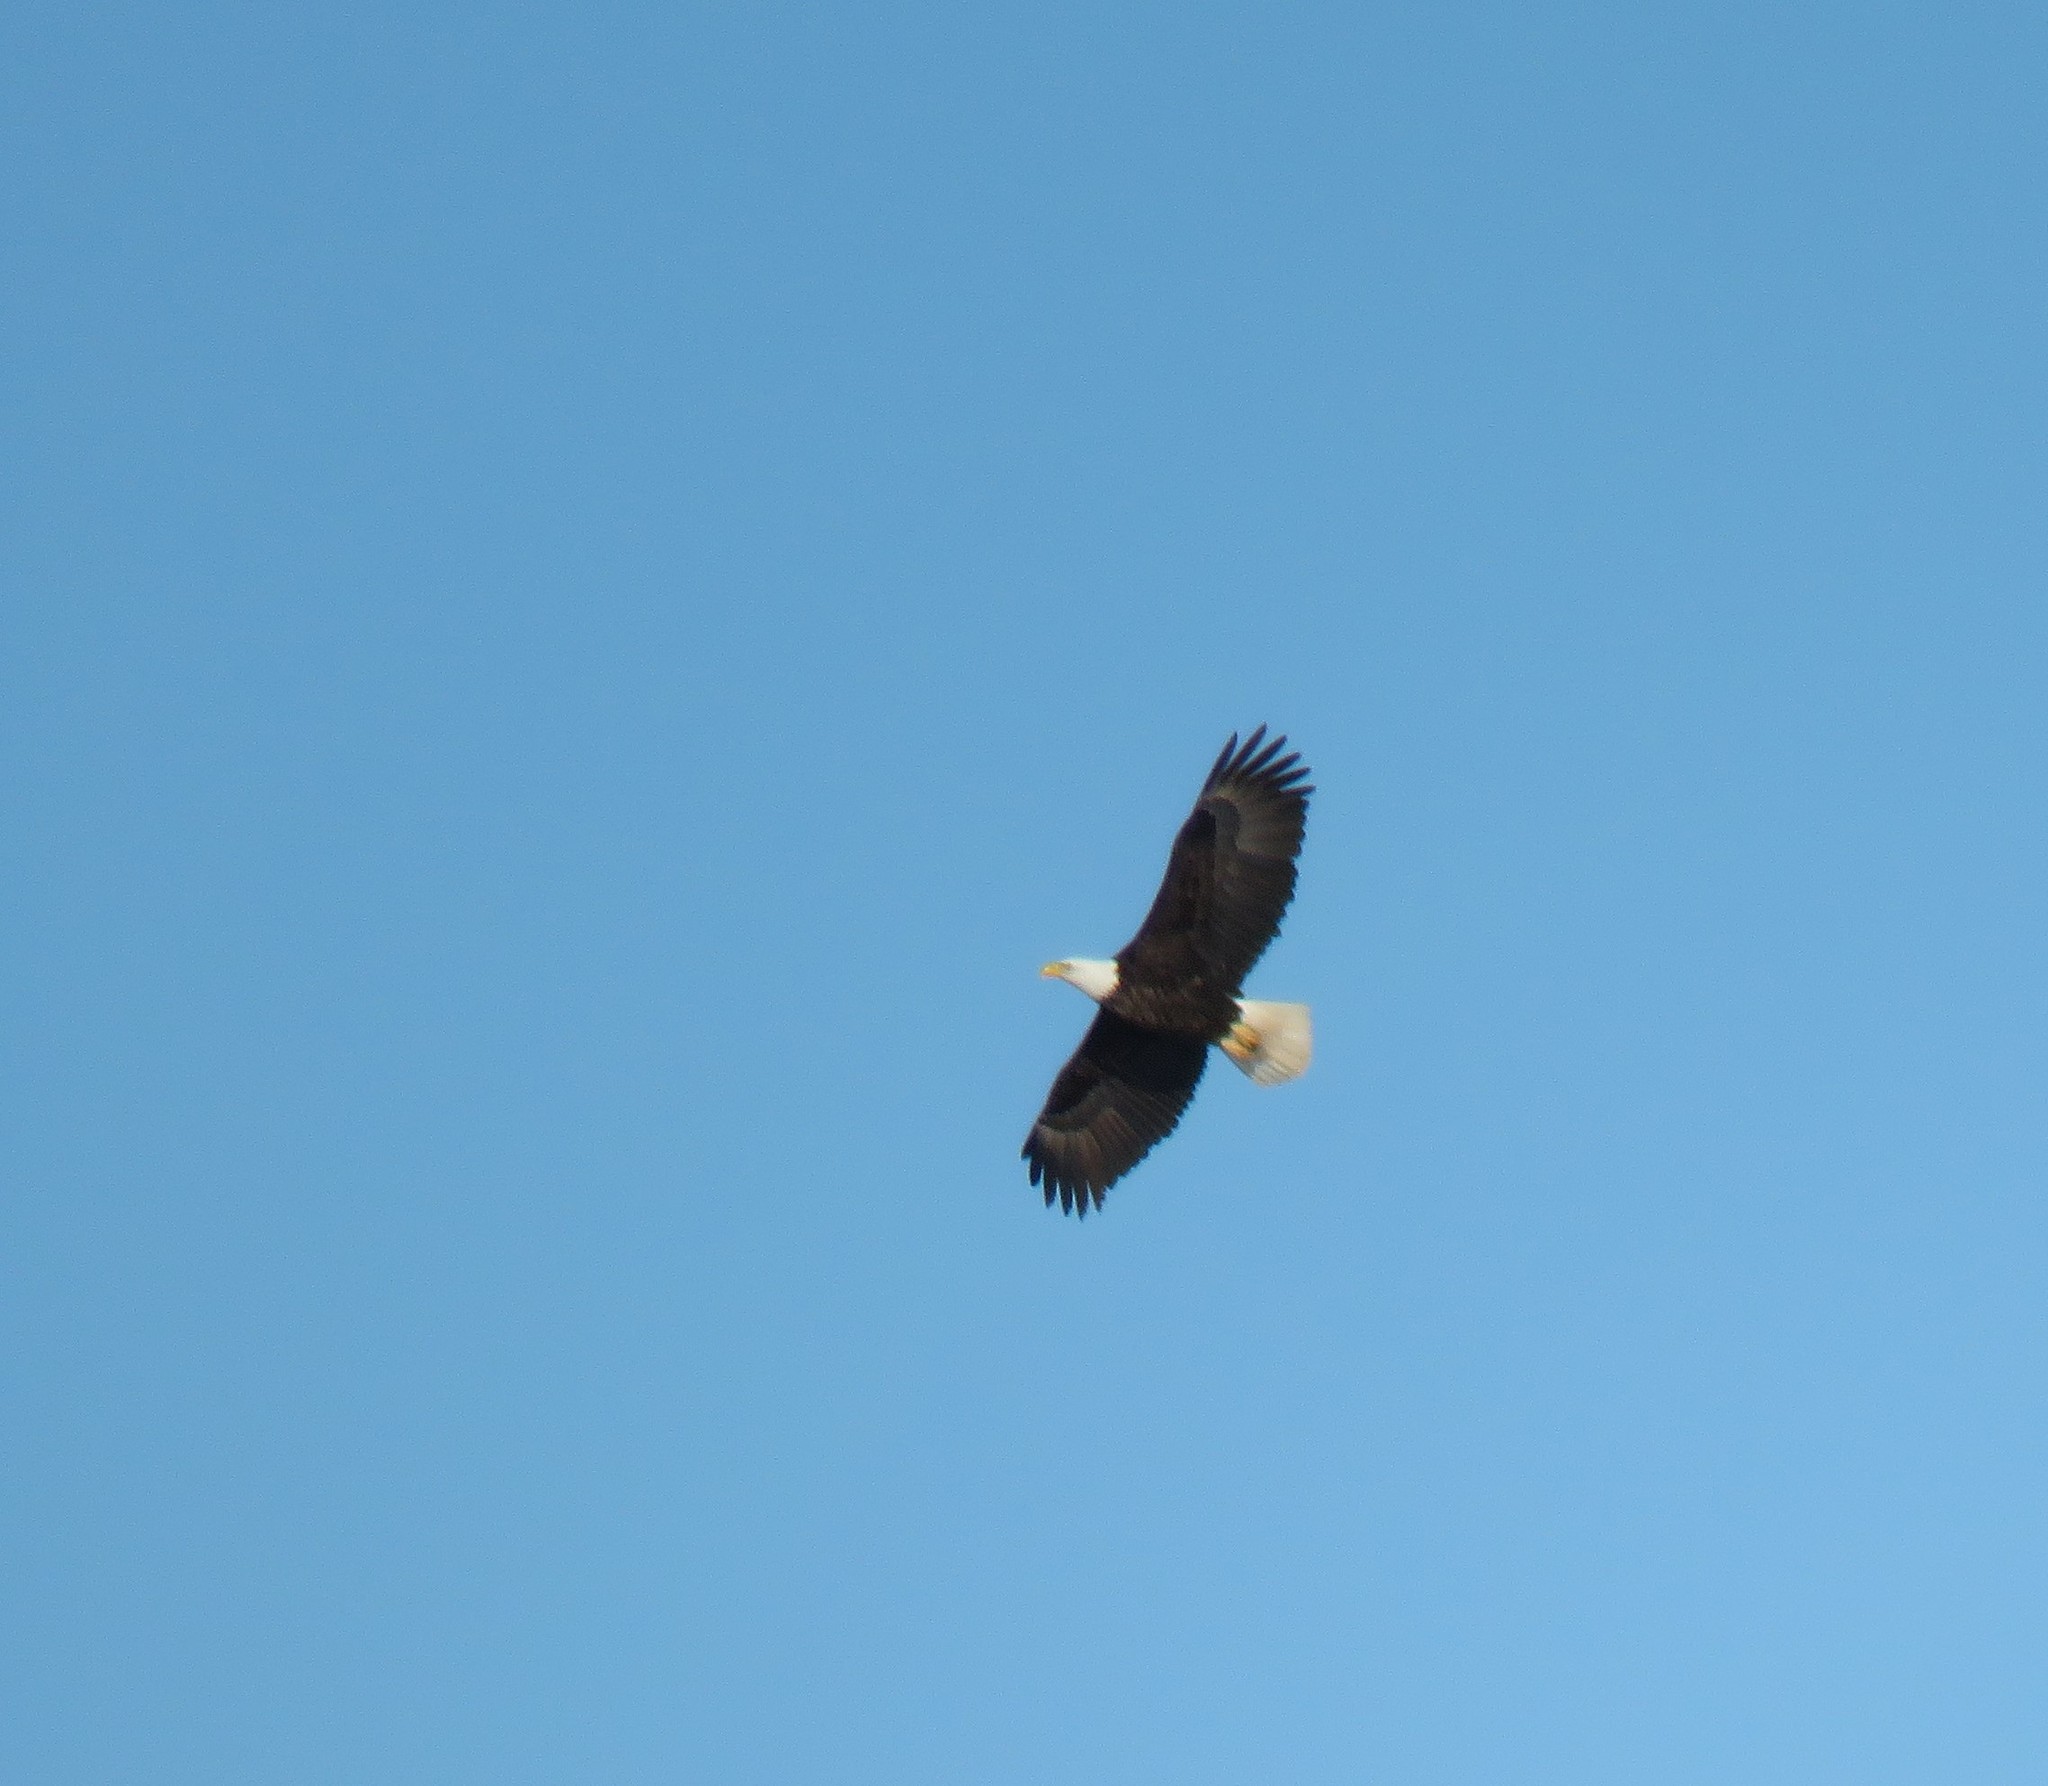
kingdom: Animalia
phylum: Chordata
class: Aves
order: Accipitriformes
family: Accipitridae
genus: Haliaeetus
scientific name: Haliaeetus leucocephalus
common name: Bald eagle
